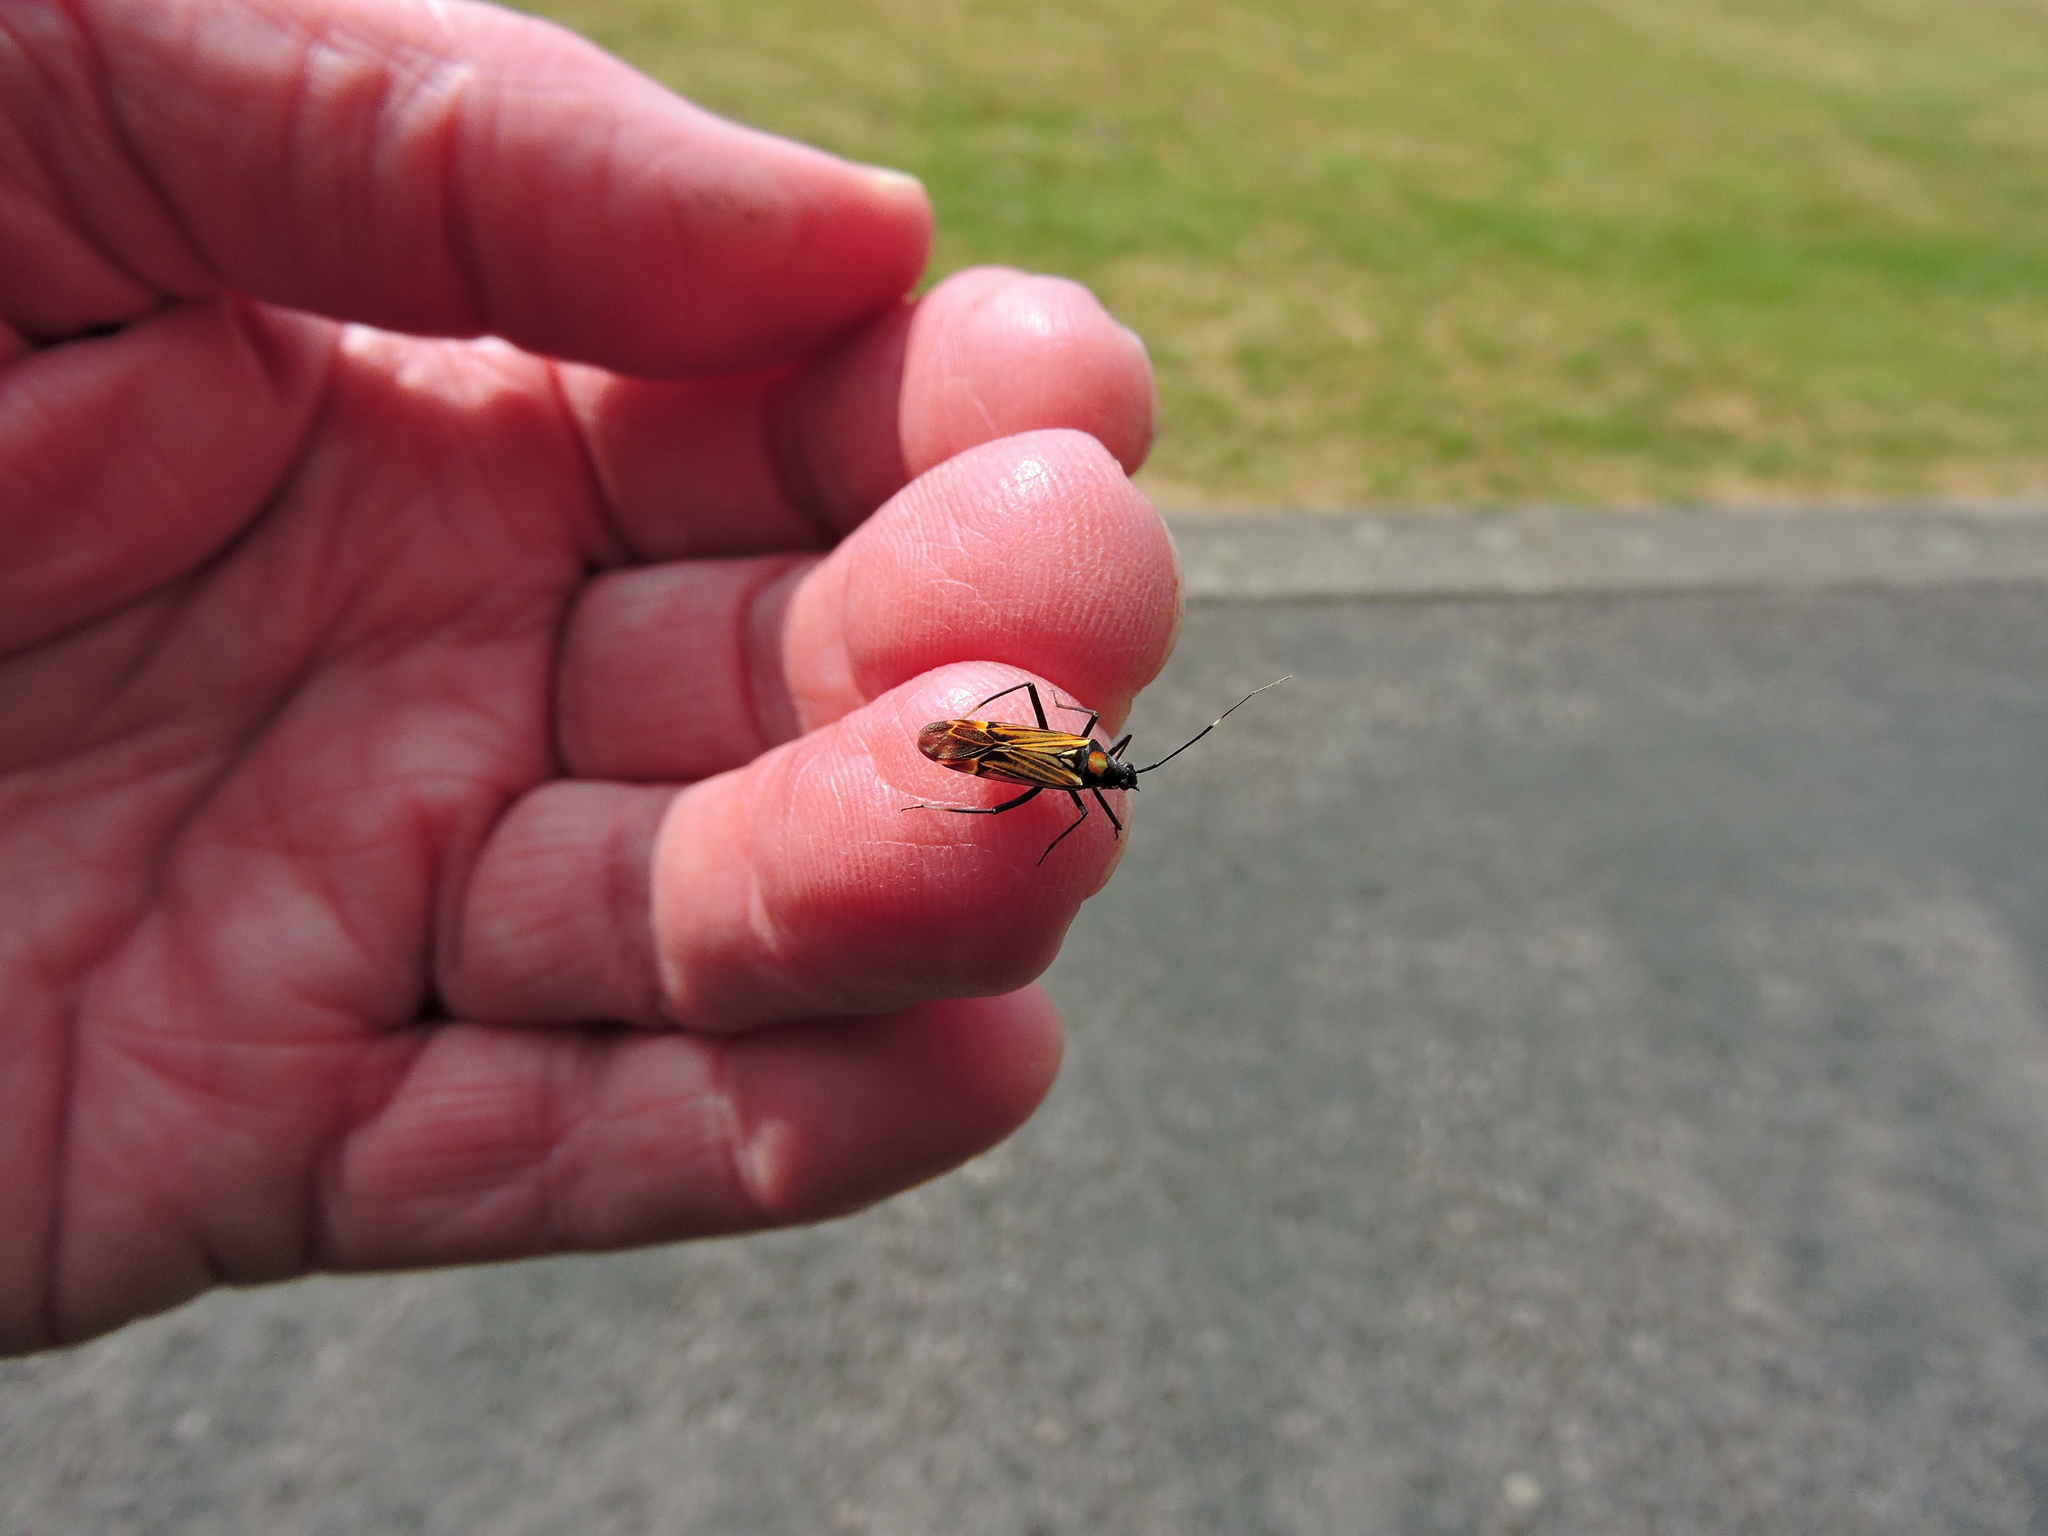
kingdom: Animalia
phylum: Arthropoda
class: Insecta
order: Hemiptera
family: Miridae
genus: Miris
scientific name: Miris striatus
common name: Fine streaked bugkin
